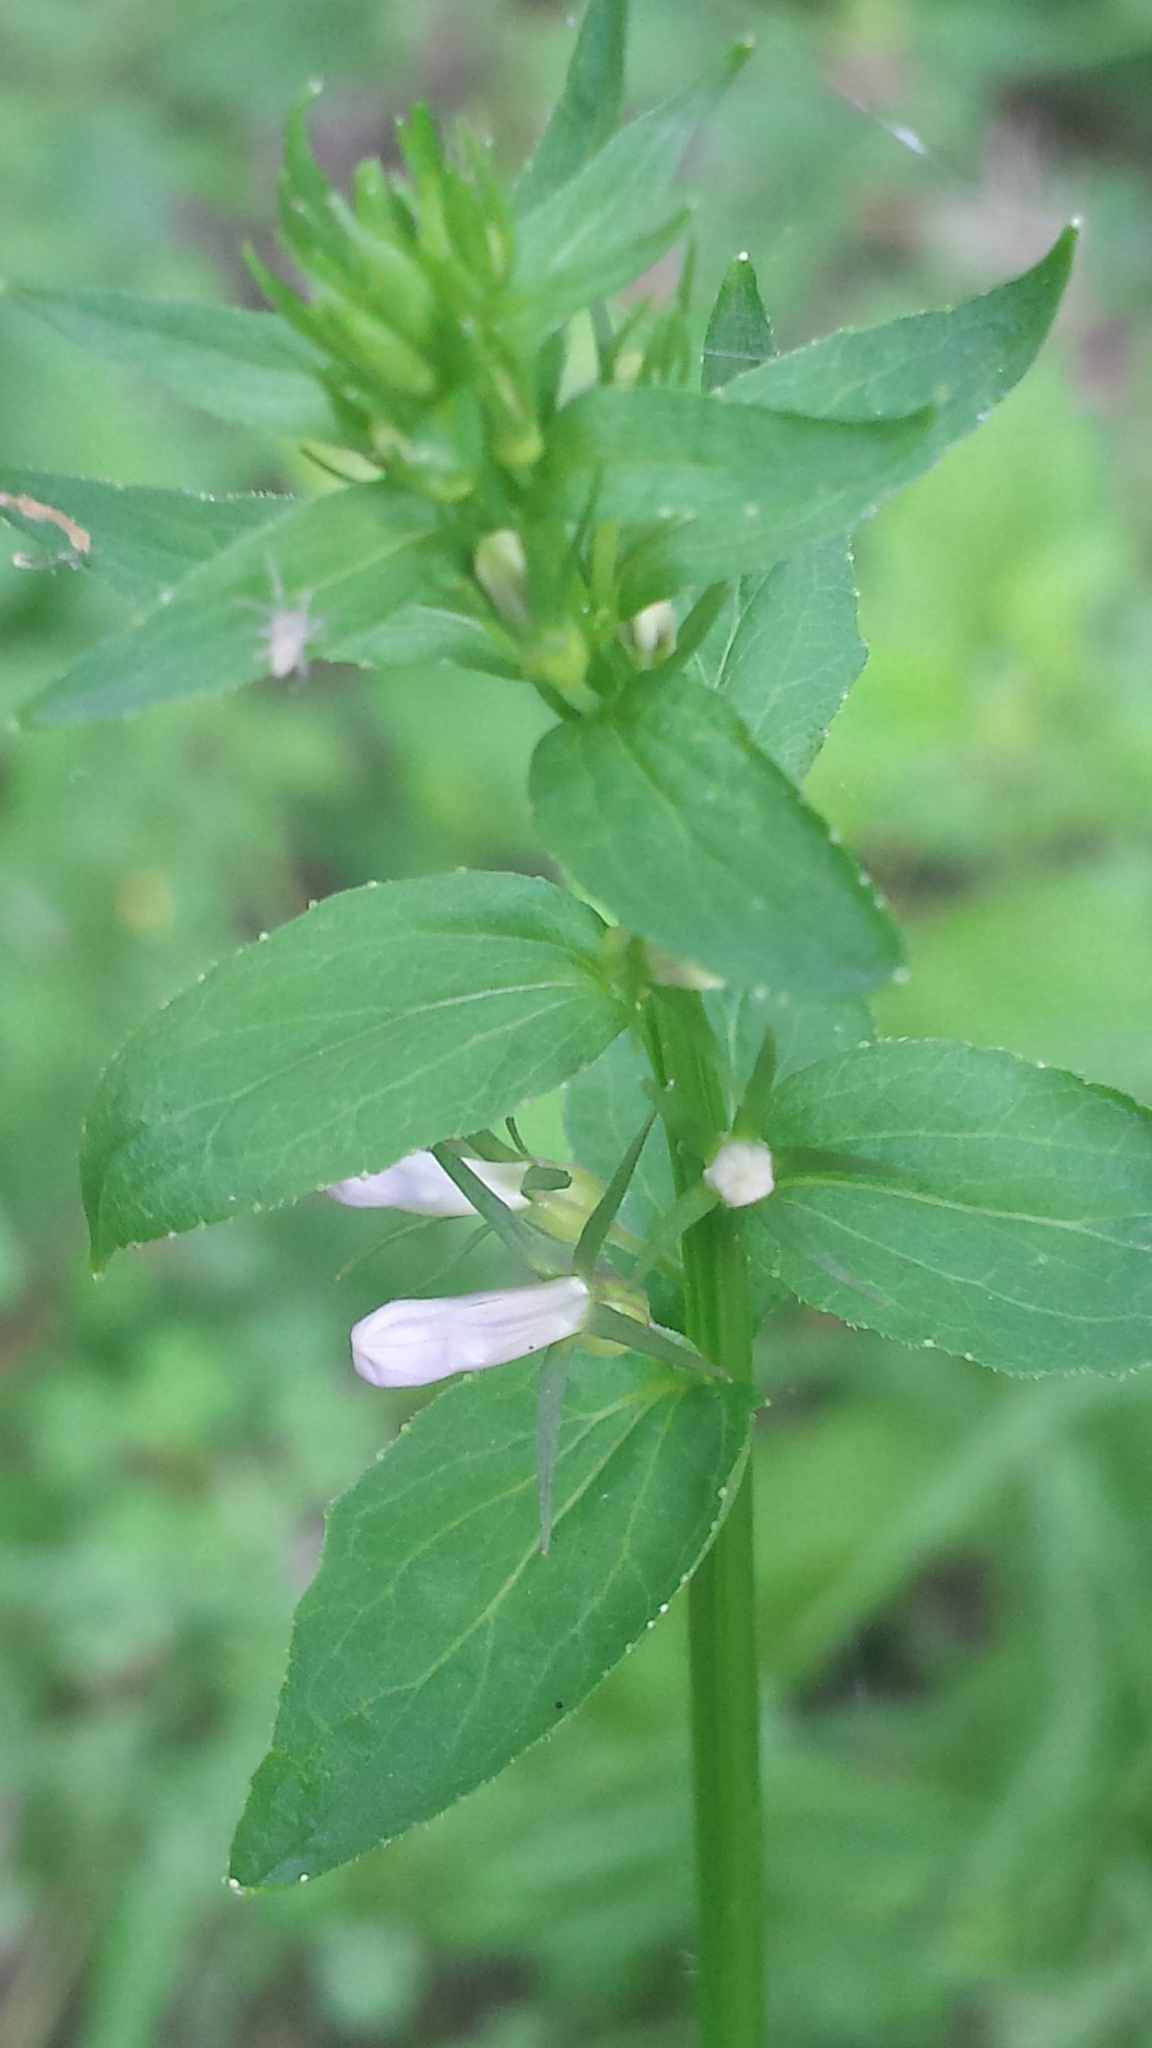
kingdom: Plantae
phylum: Tracheophyta
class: Magnoliopsida
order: Asterales
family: Campanulaceae
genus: Lobelia
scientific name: Lobelia inflata
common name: Indian tobacco
